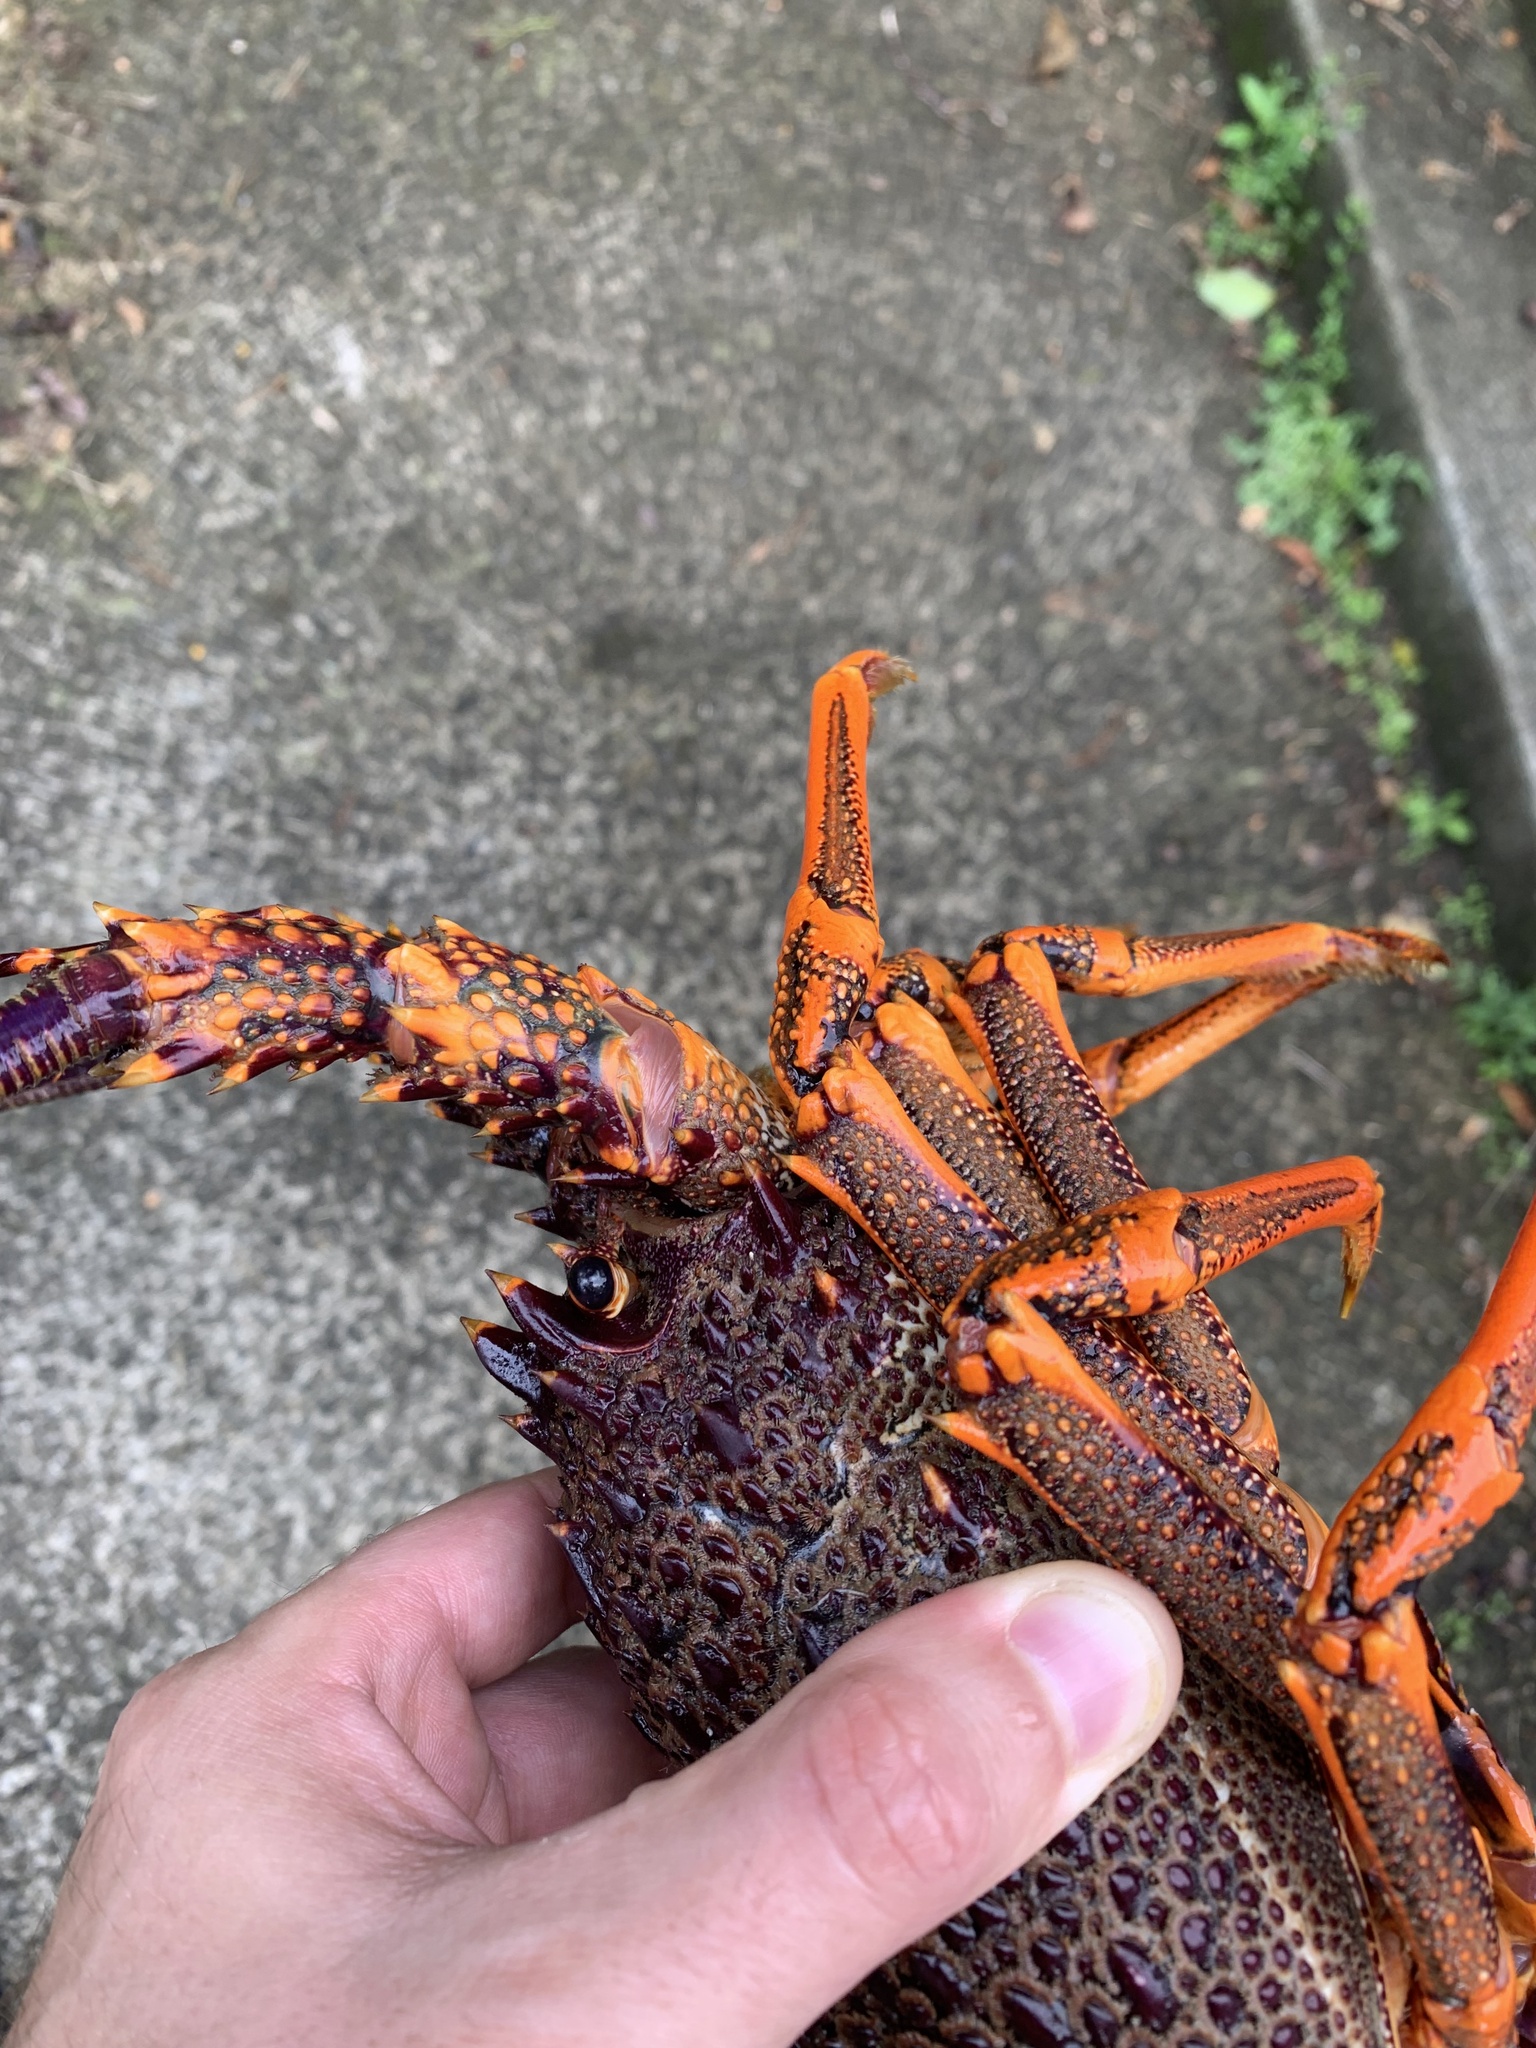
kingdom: Animalia
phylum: Arthropoda
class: Malacostraca
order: Decapoda
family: Palinuridae
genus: Jasus
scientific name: Jasus edwardsii
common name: Red rock lobster
